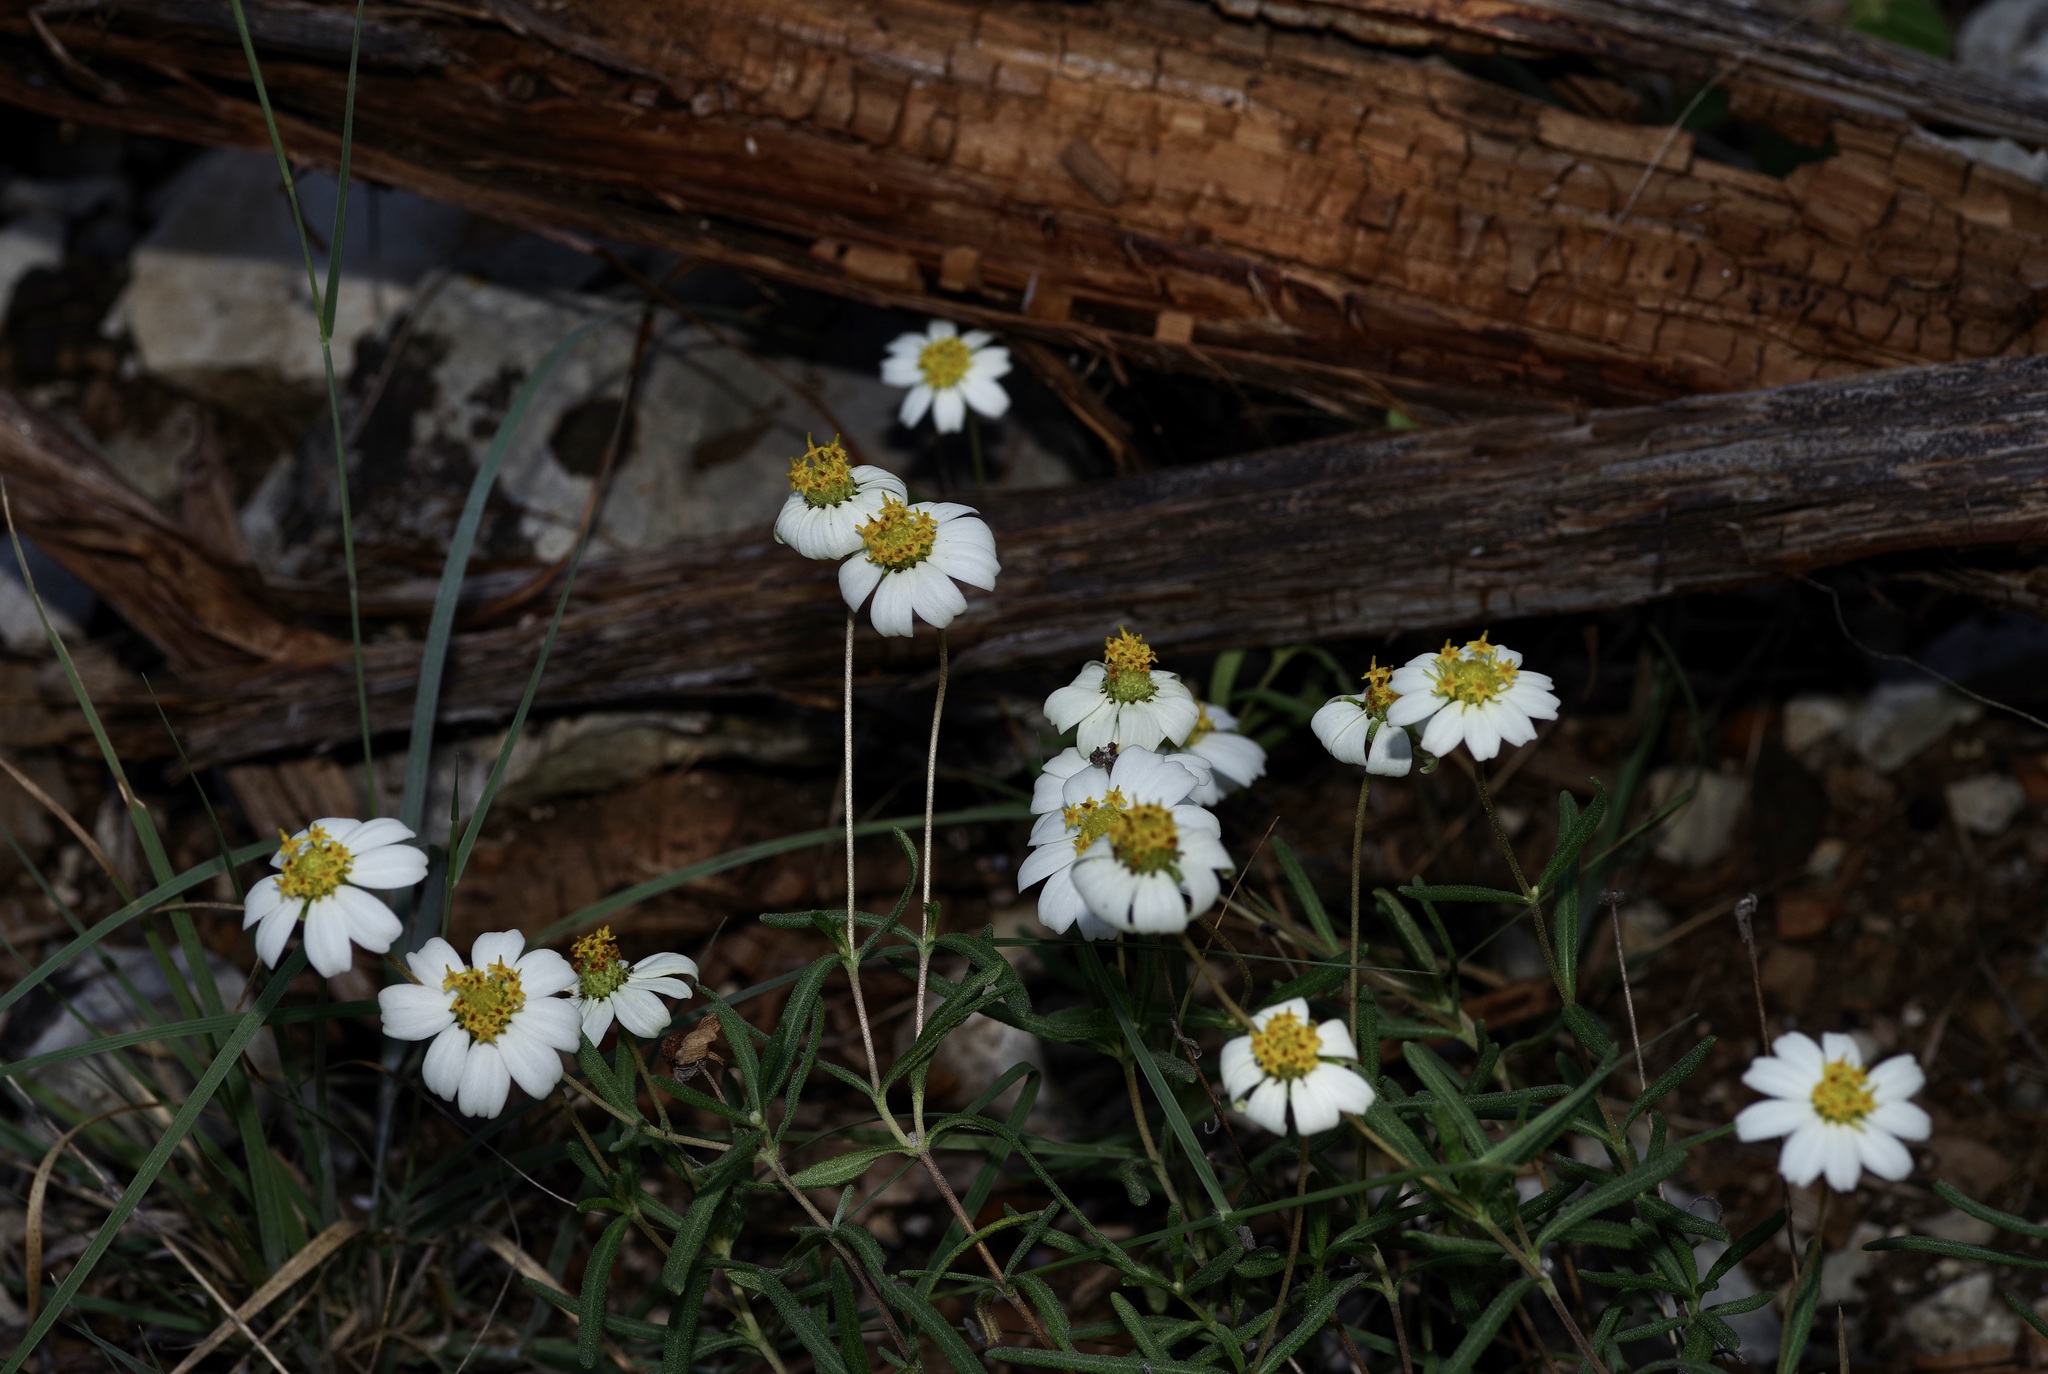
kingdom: Plantae
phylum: Tracheophyta
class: Magnoliopsida
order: Asterales
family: Asteraceae
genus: Melampodium
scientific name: Melampodium leucanthum
